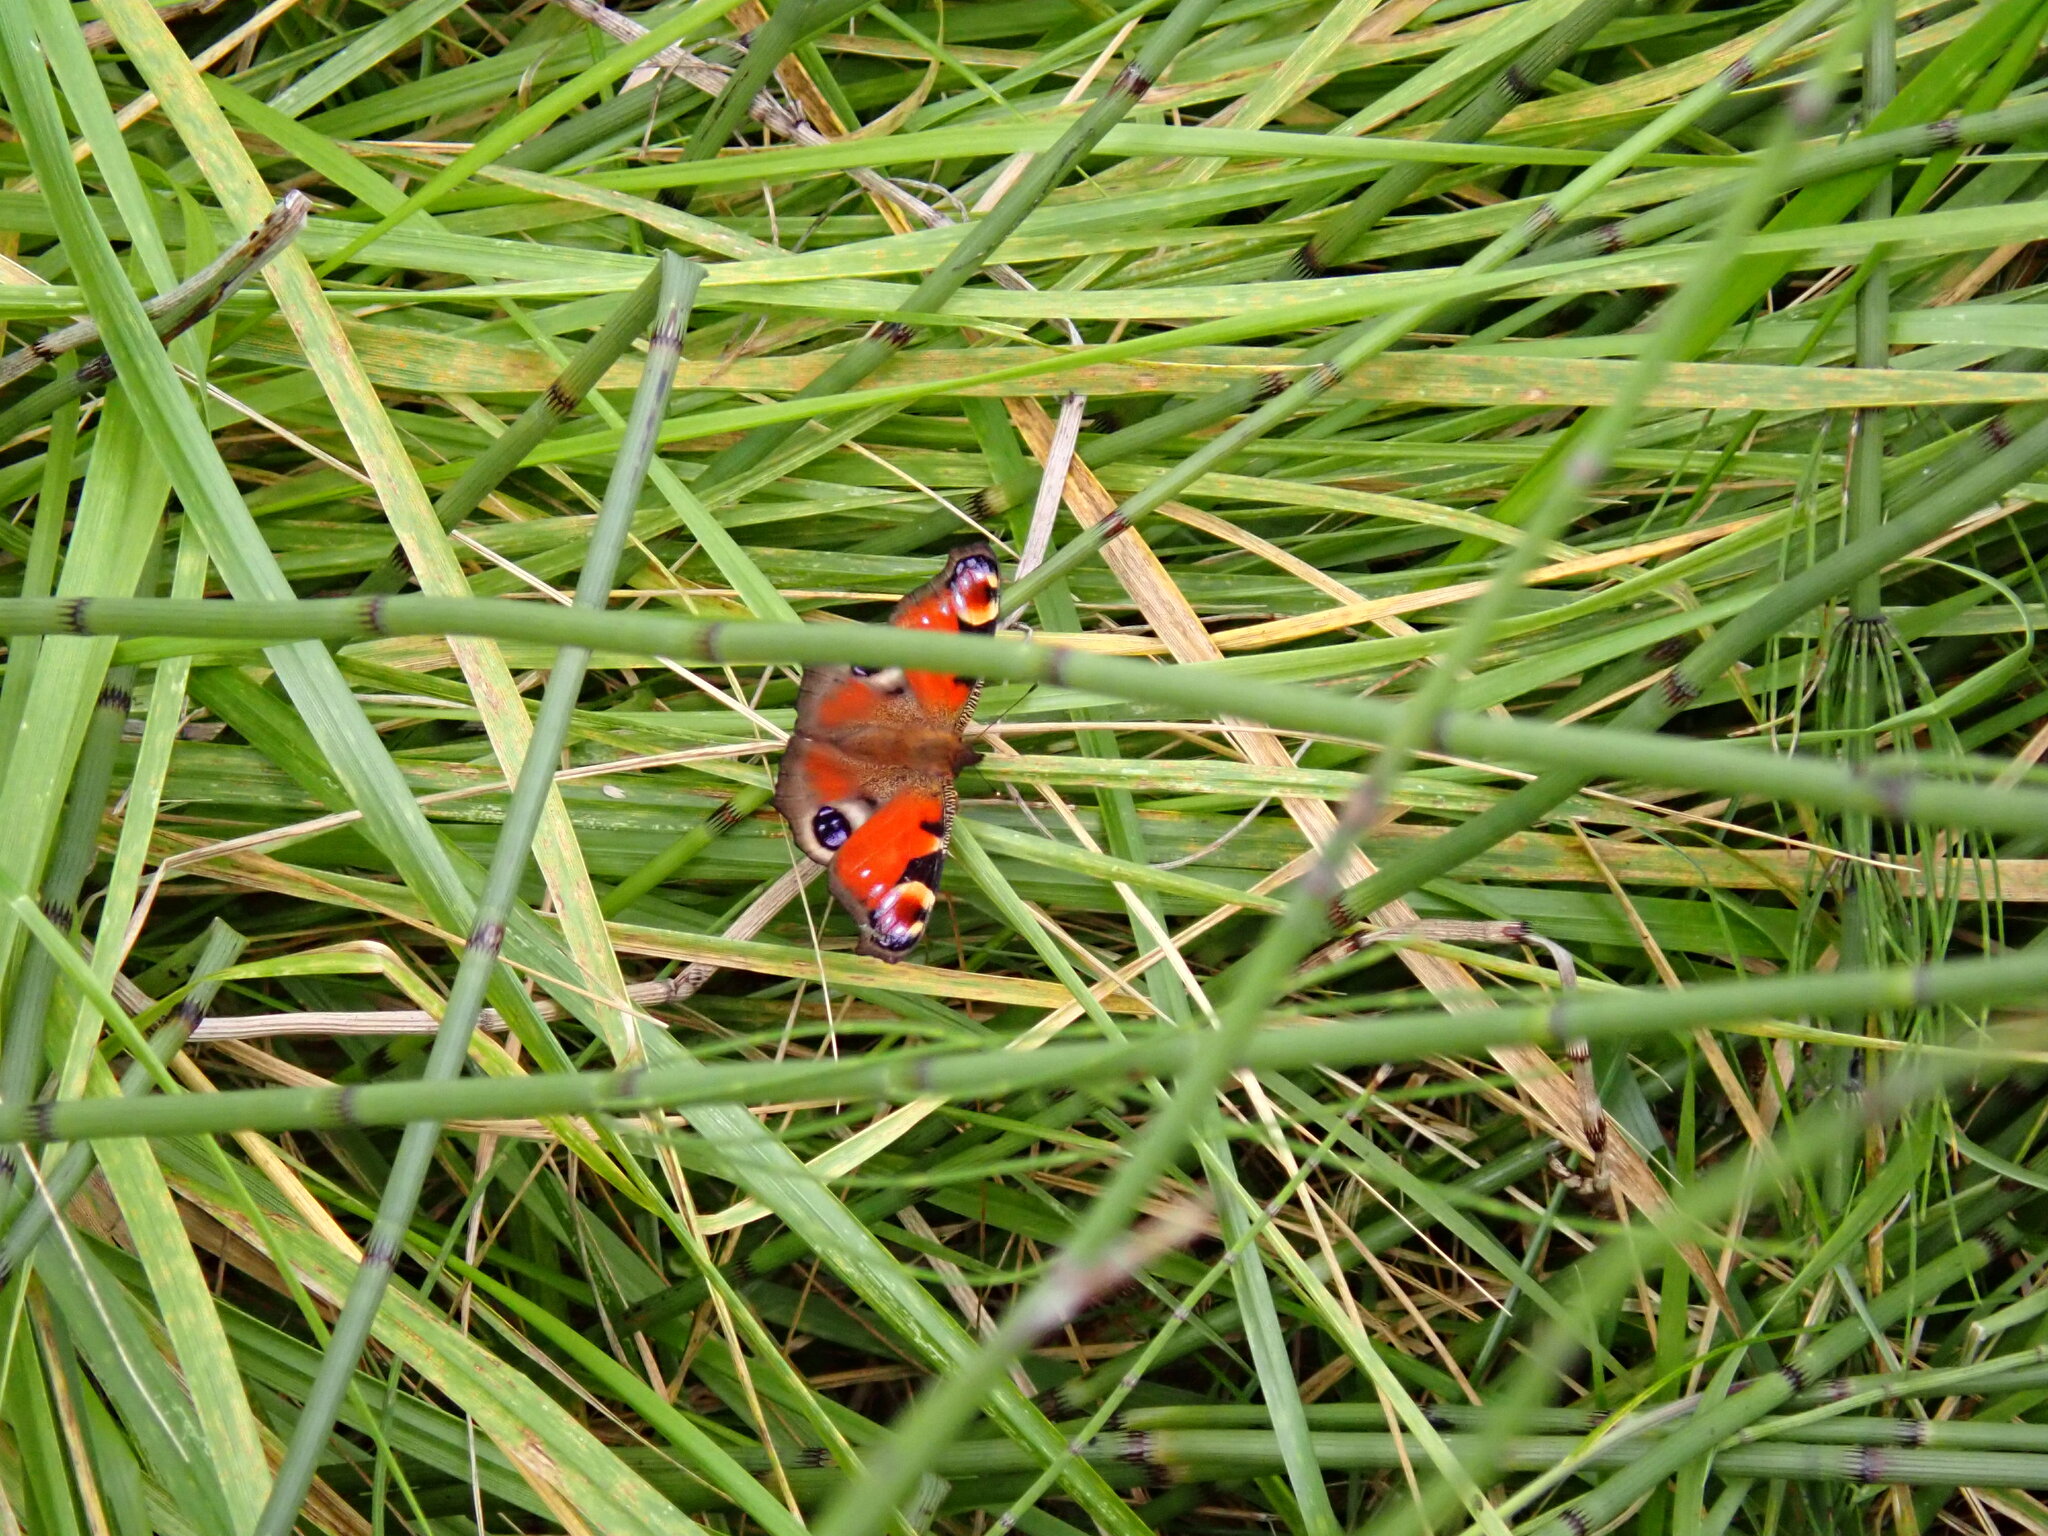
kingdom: Animalia
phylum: Arthropoda
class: Insecta
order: Lepidoptera
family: Nymphalidae
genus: Aglais
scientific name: Aglais io
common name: Peacock
